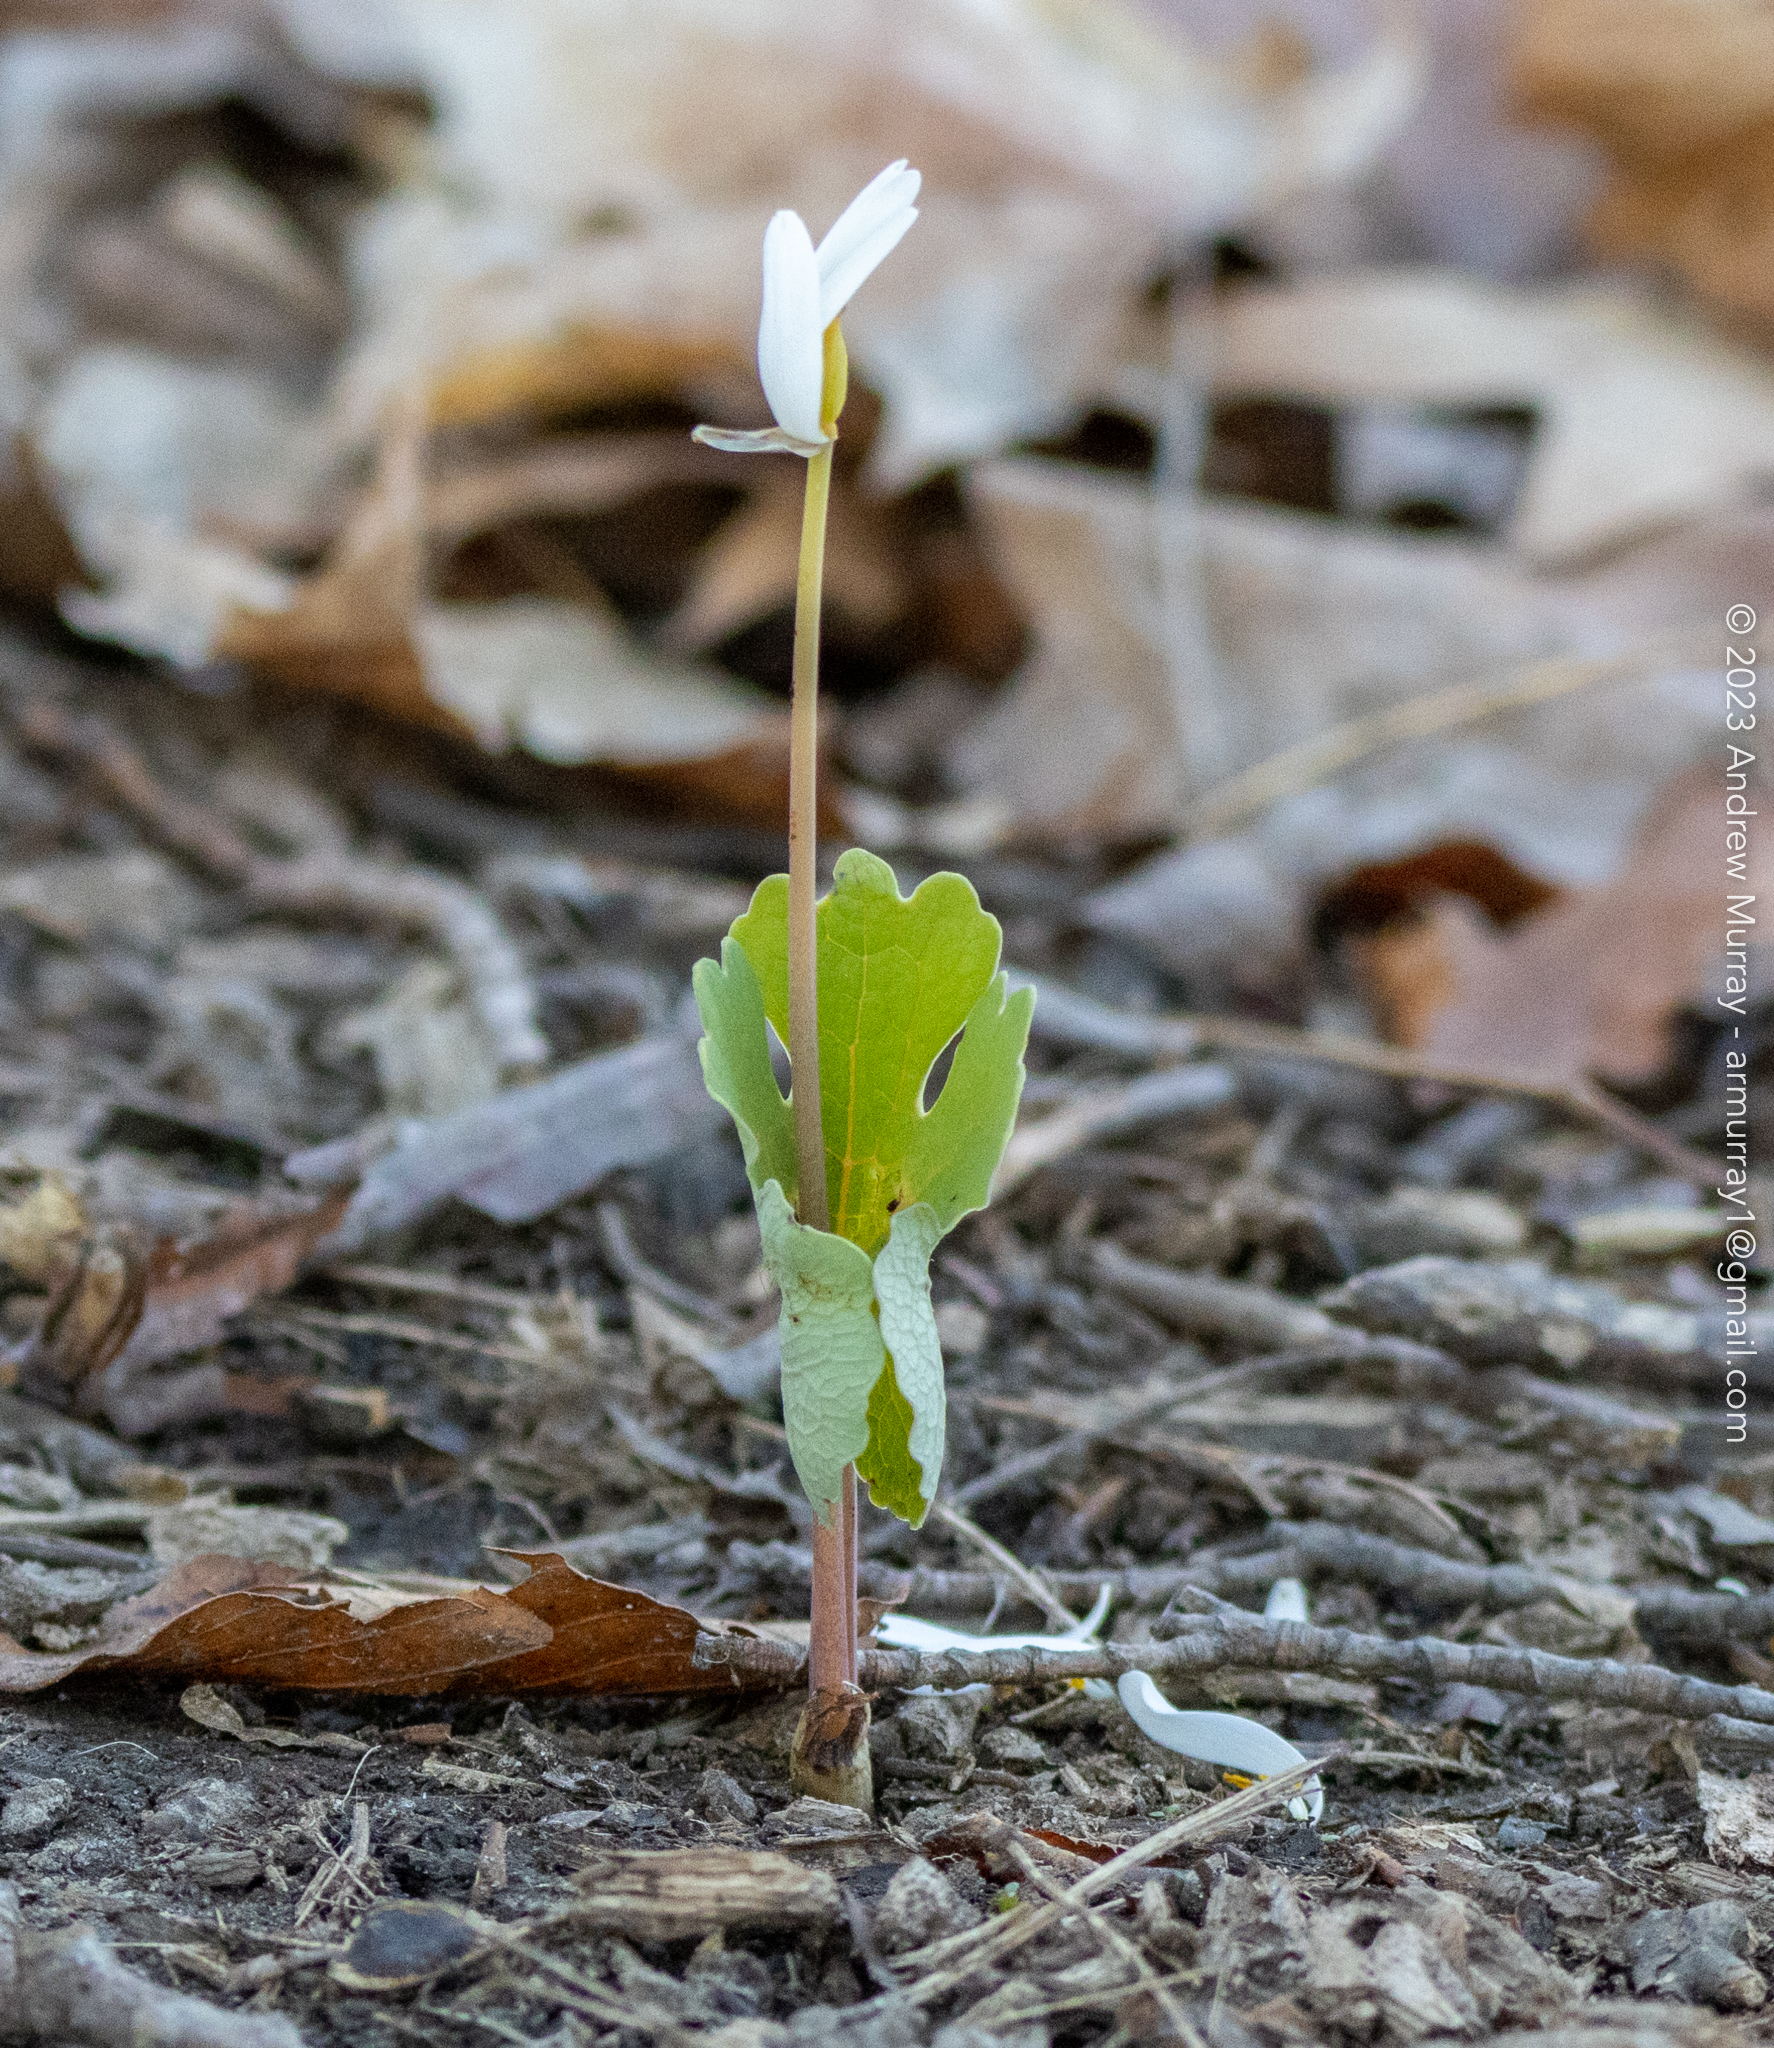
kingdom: Plantae
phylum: Tracheophyta
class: Magnoliopsida
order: Ranunculales
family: Papaveraceae
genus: Sanguinaria
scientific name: Sanguinaria canadensis
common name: Bloodroot
